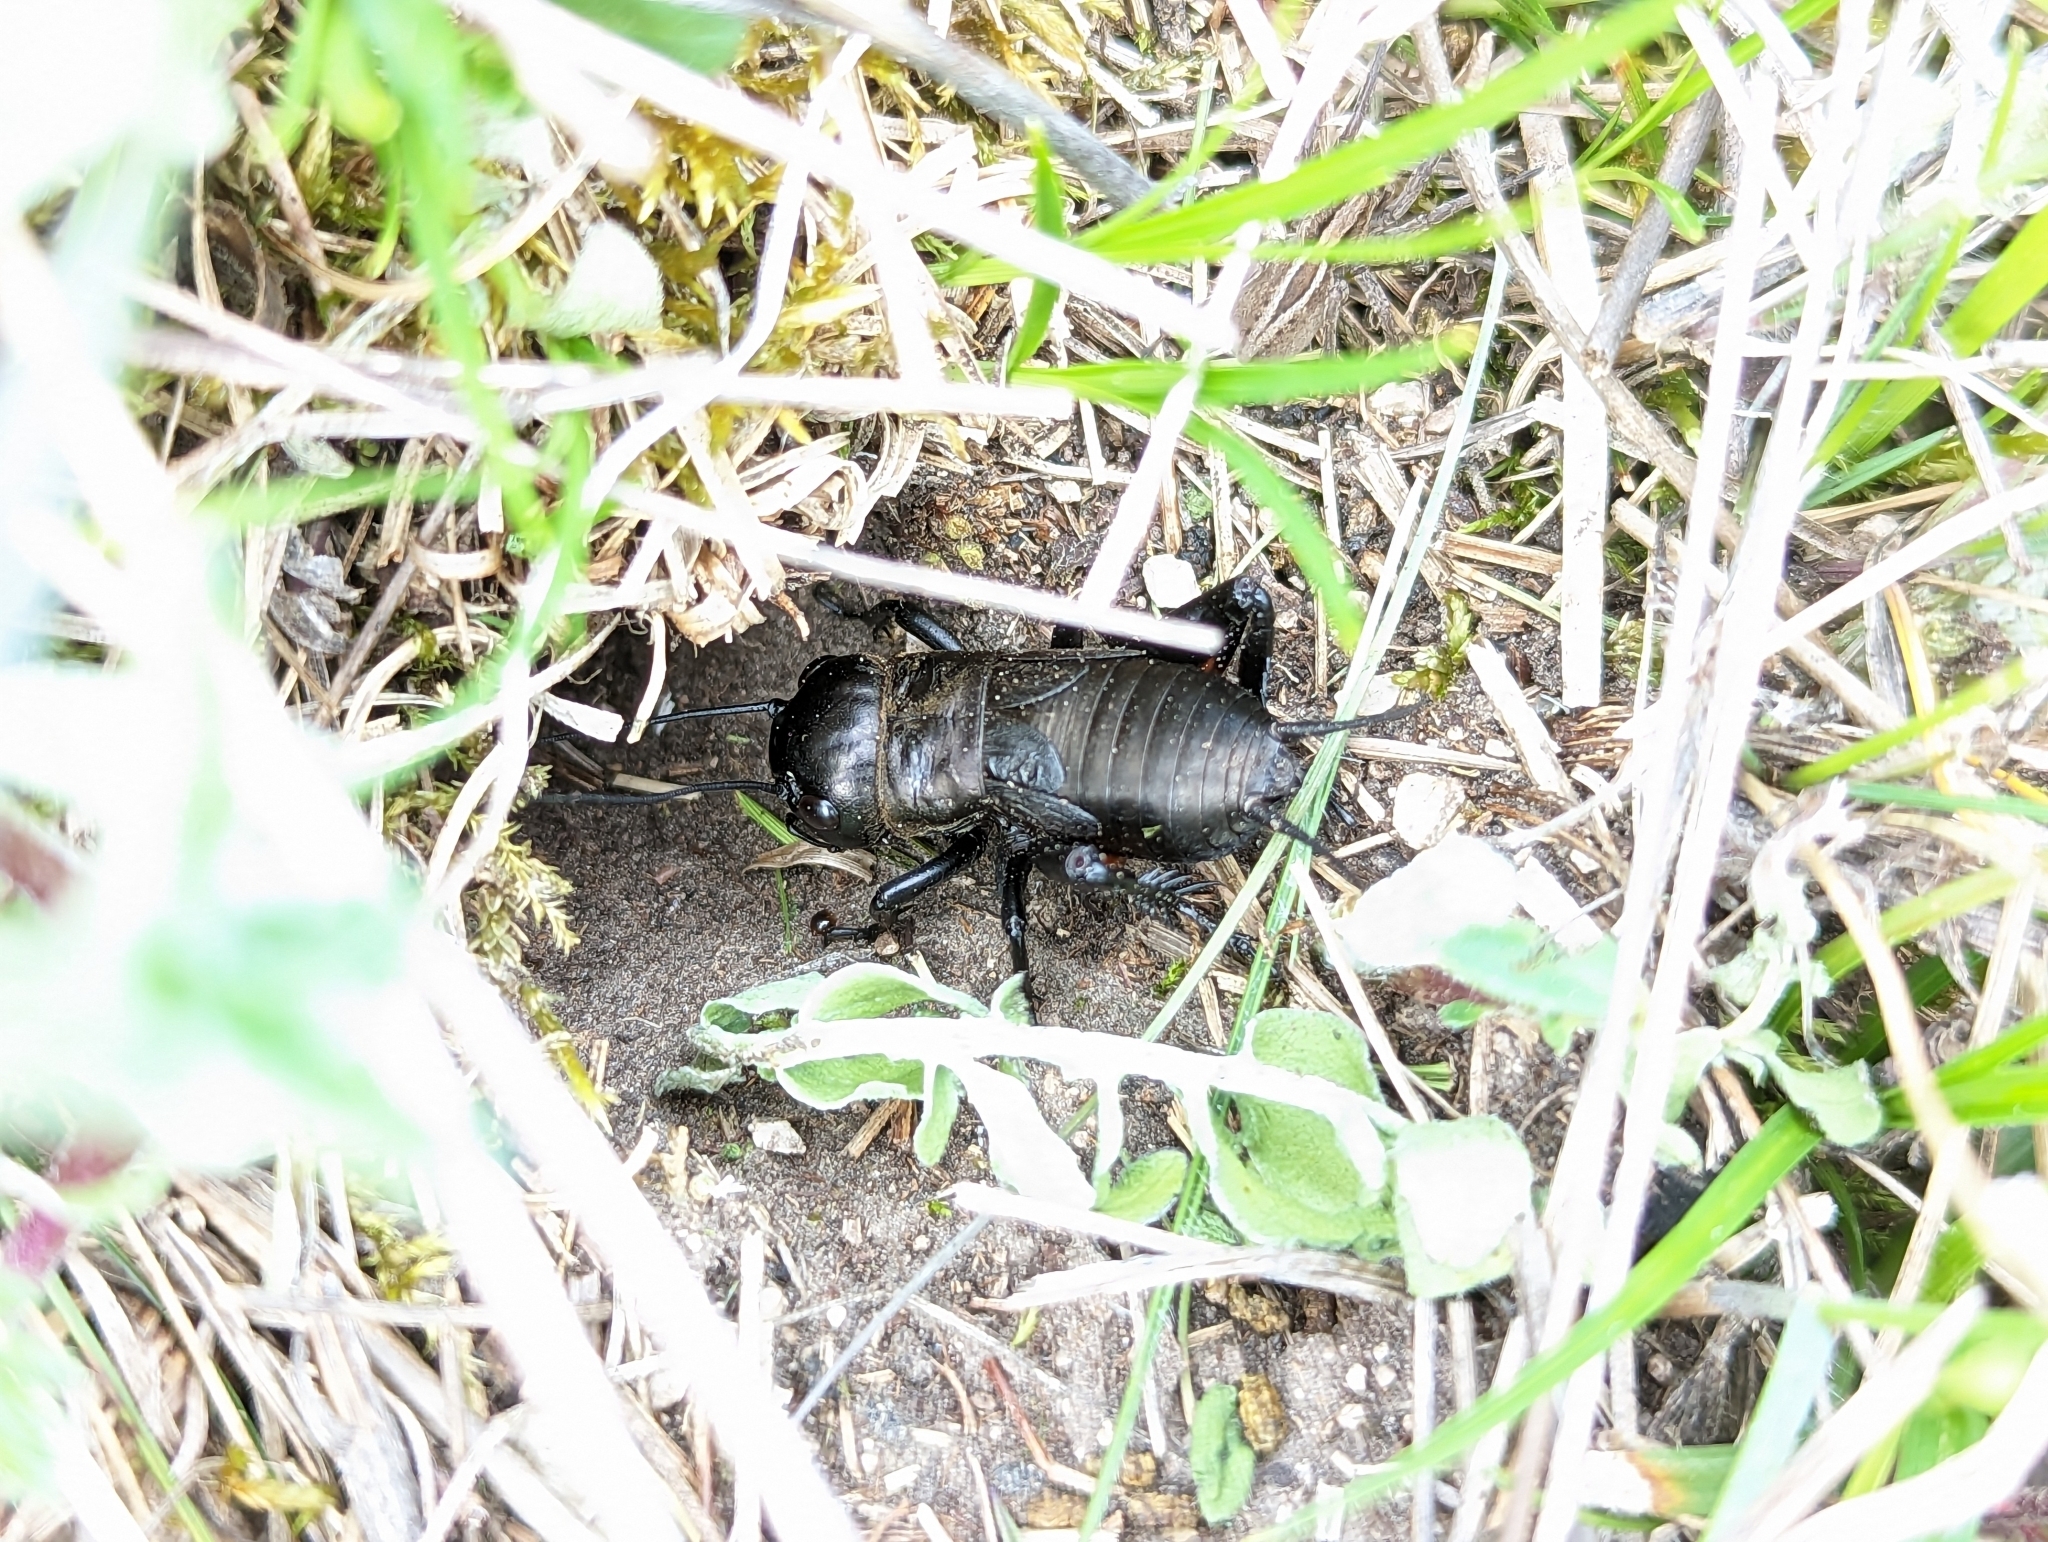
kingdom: Animalia
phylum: Arthropoda
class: Insecta
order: Orthoptera
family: Gryllidae
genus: Gryllus
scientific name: Gryllus campestris
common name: Field cricket
